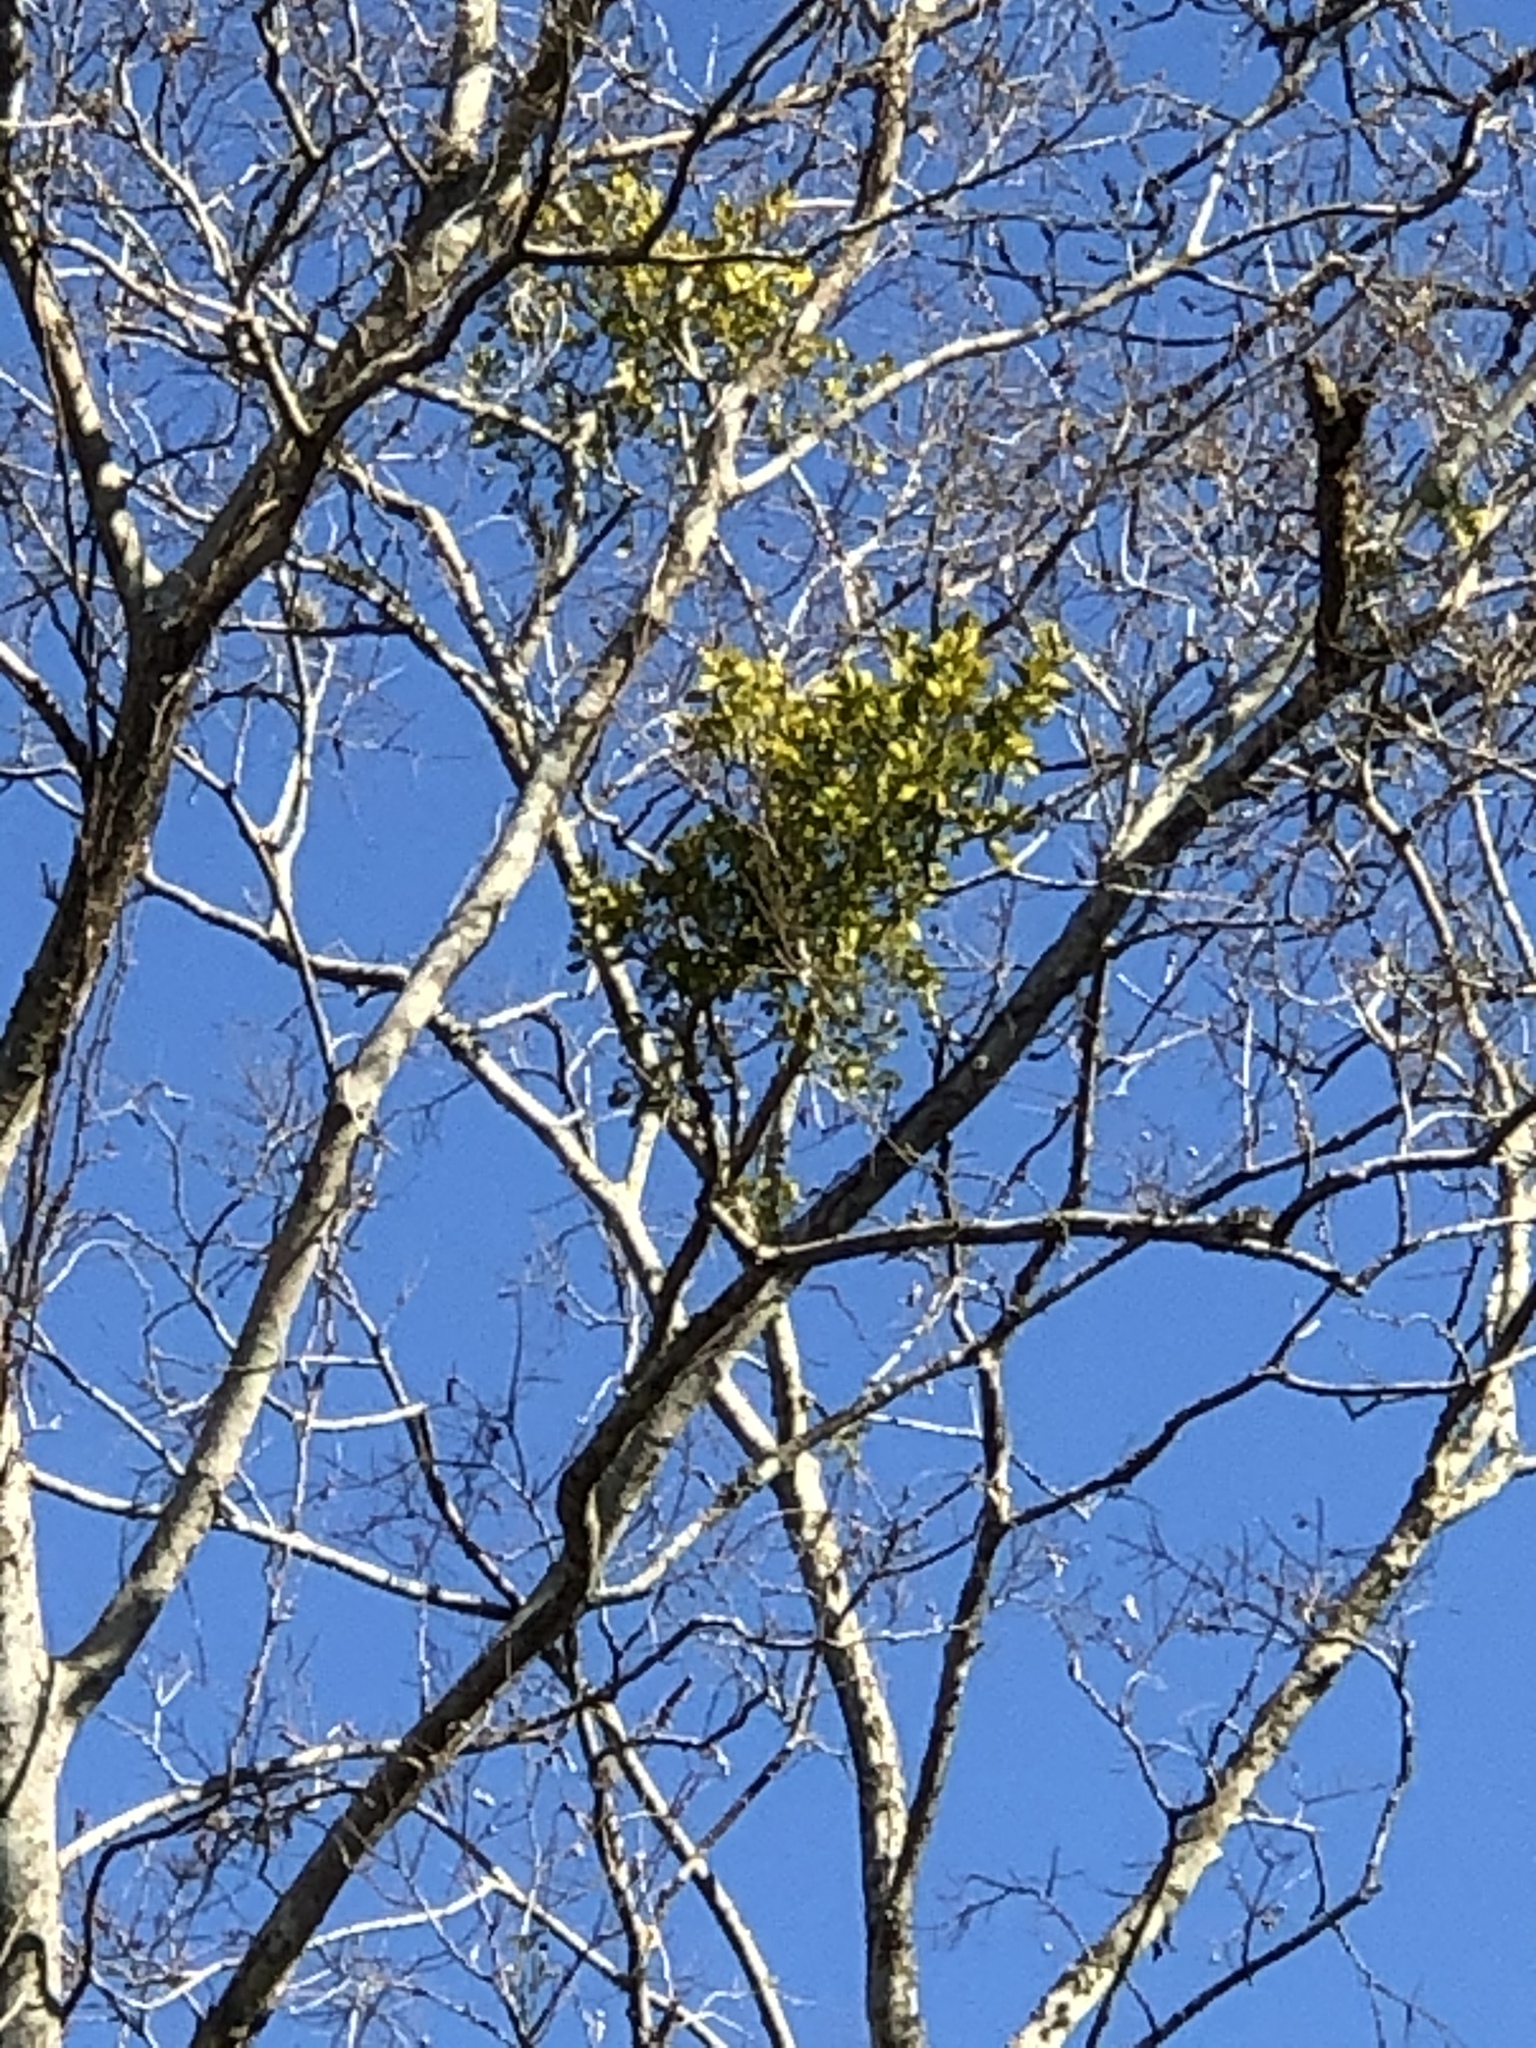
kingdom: Plantae
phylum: Tracheophyta
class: Magnoliopsida
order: Santalales
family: Viscaceae
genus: Phoradendron
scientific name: Phoradendron leucarpum
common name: Pacific mistletoe
